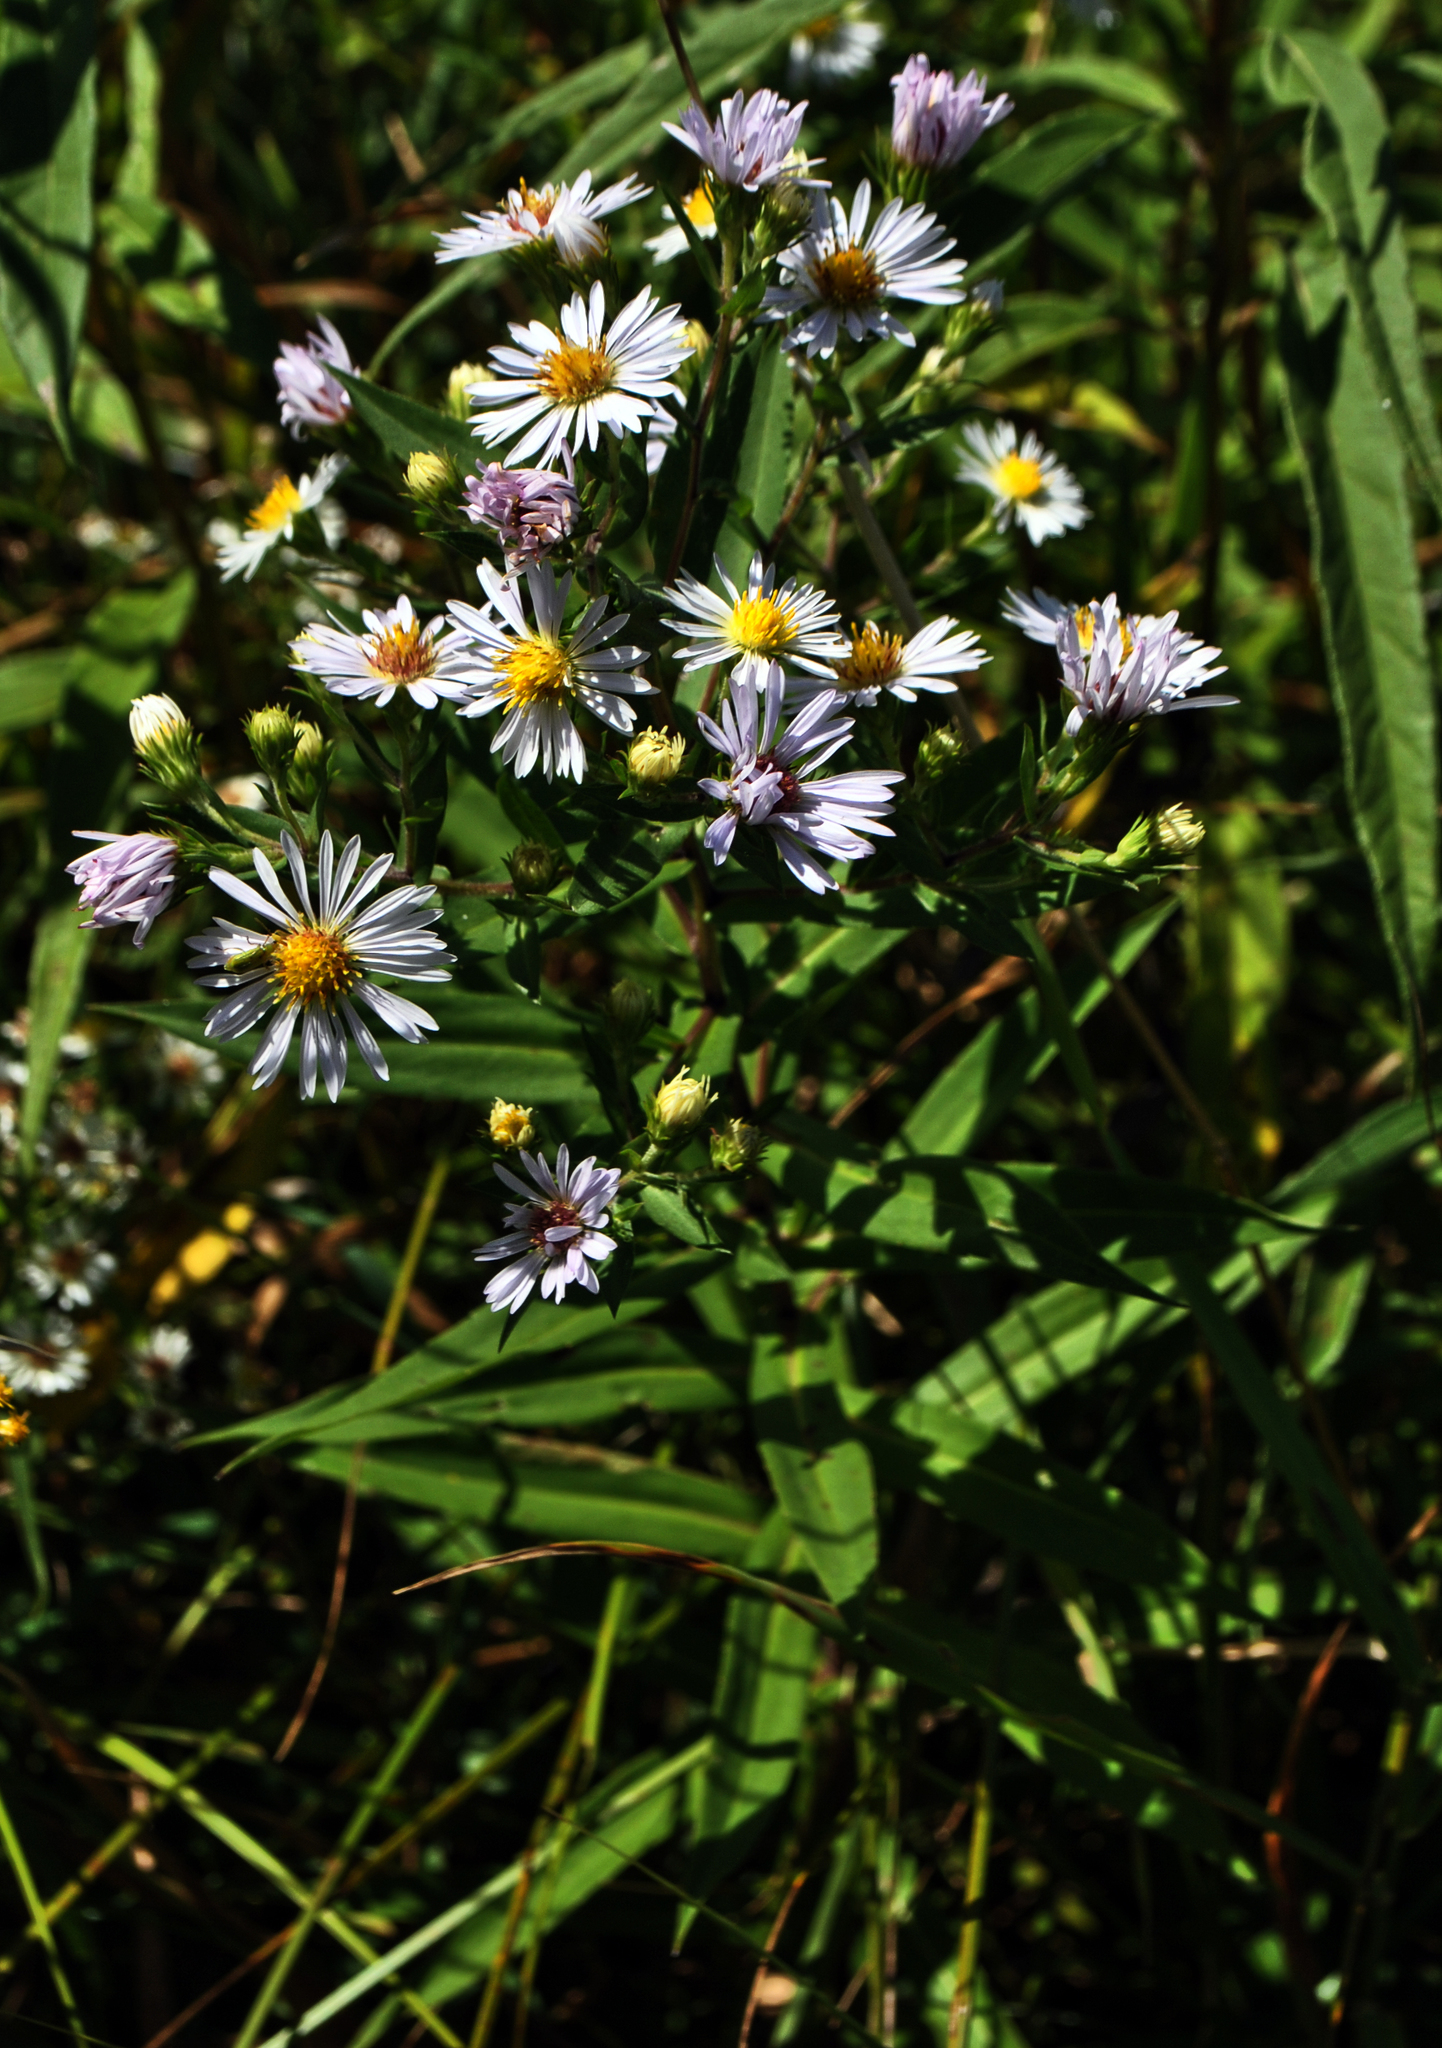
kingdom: Plantae
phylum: Tracheophyta
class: Magnoliopsida
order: Asterales
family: Asteraceae
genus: Symphyotrichum
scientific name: Symphyotrichum lanceolatum
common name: Panicled aster
